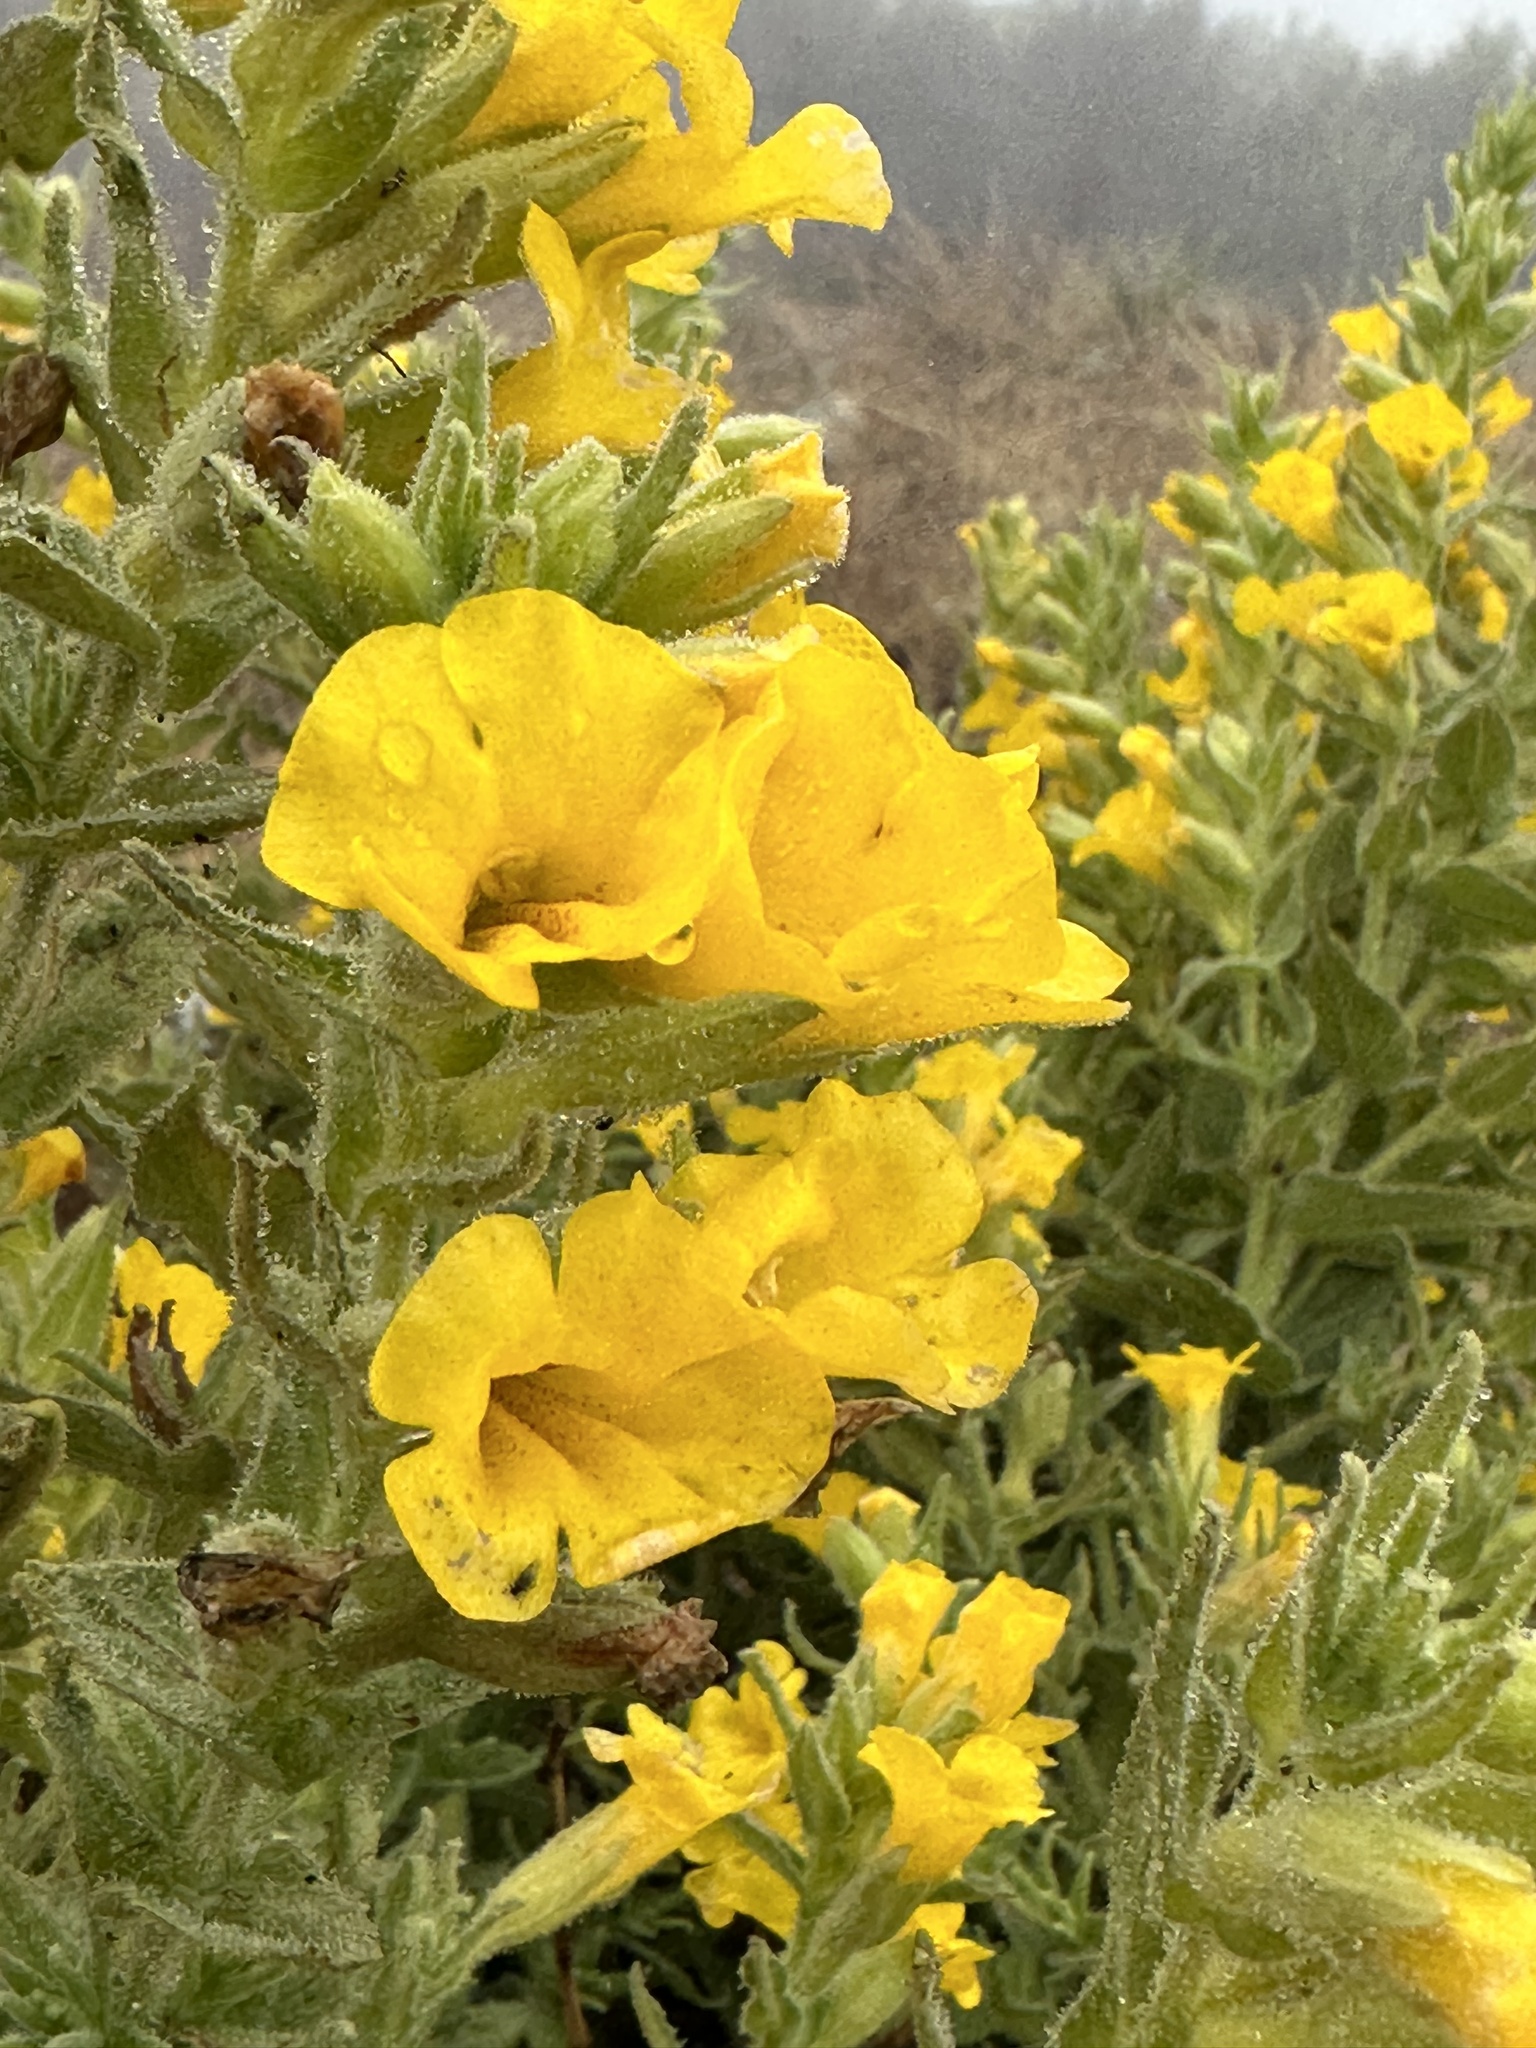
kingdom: Plantae
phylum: Tracheophyta
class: Magnoliopsida
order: Lamiales
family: Phrymaceae
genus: Diplacus
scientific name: Diplacus clevelandii
